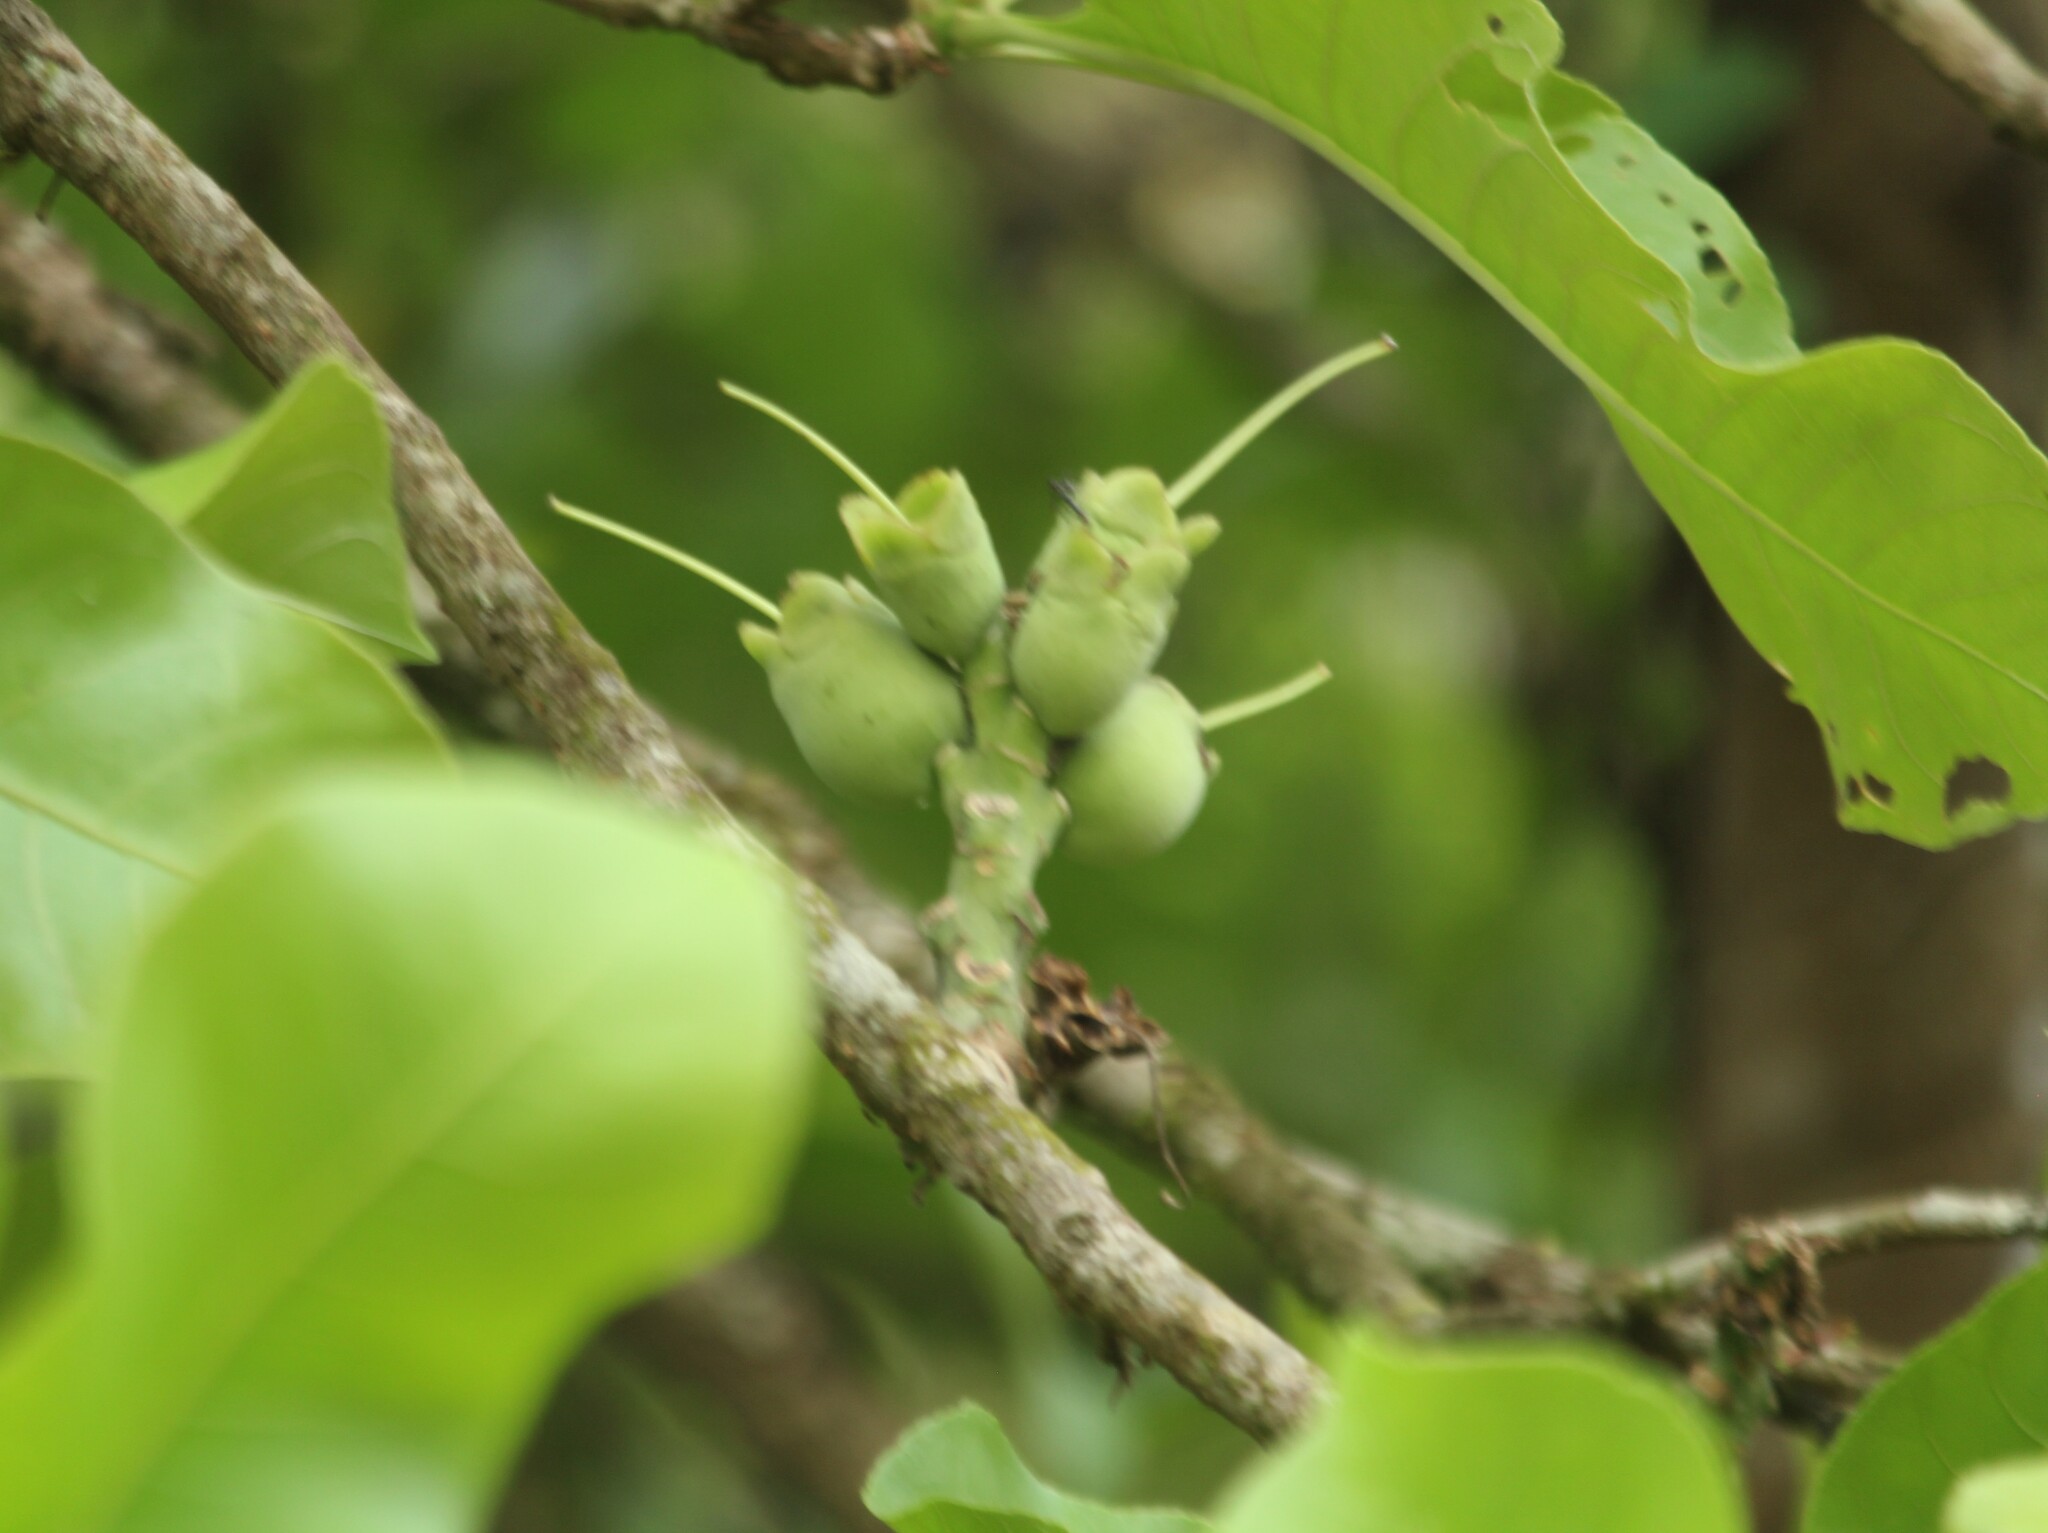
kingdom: Plantae
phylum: Tracheophyta
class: Magnoliopsida
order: Ericales
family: Lecythidaceae
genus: Careya
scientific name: Careya arborea
